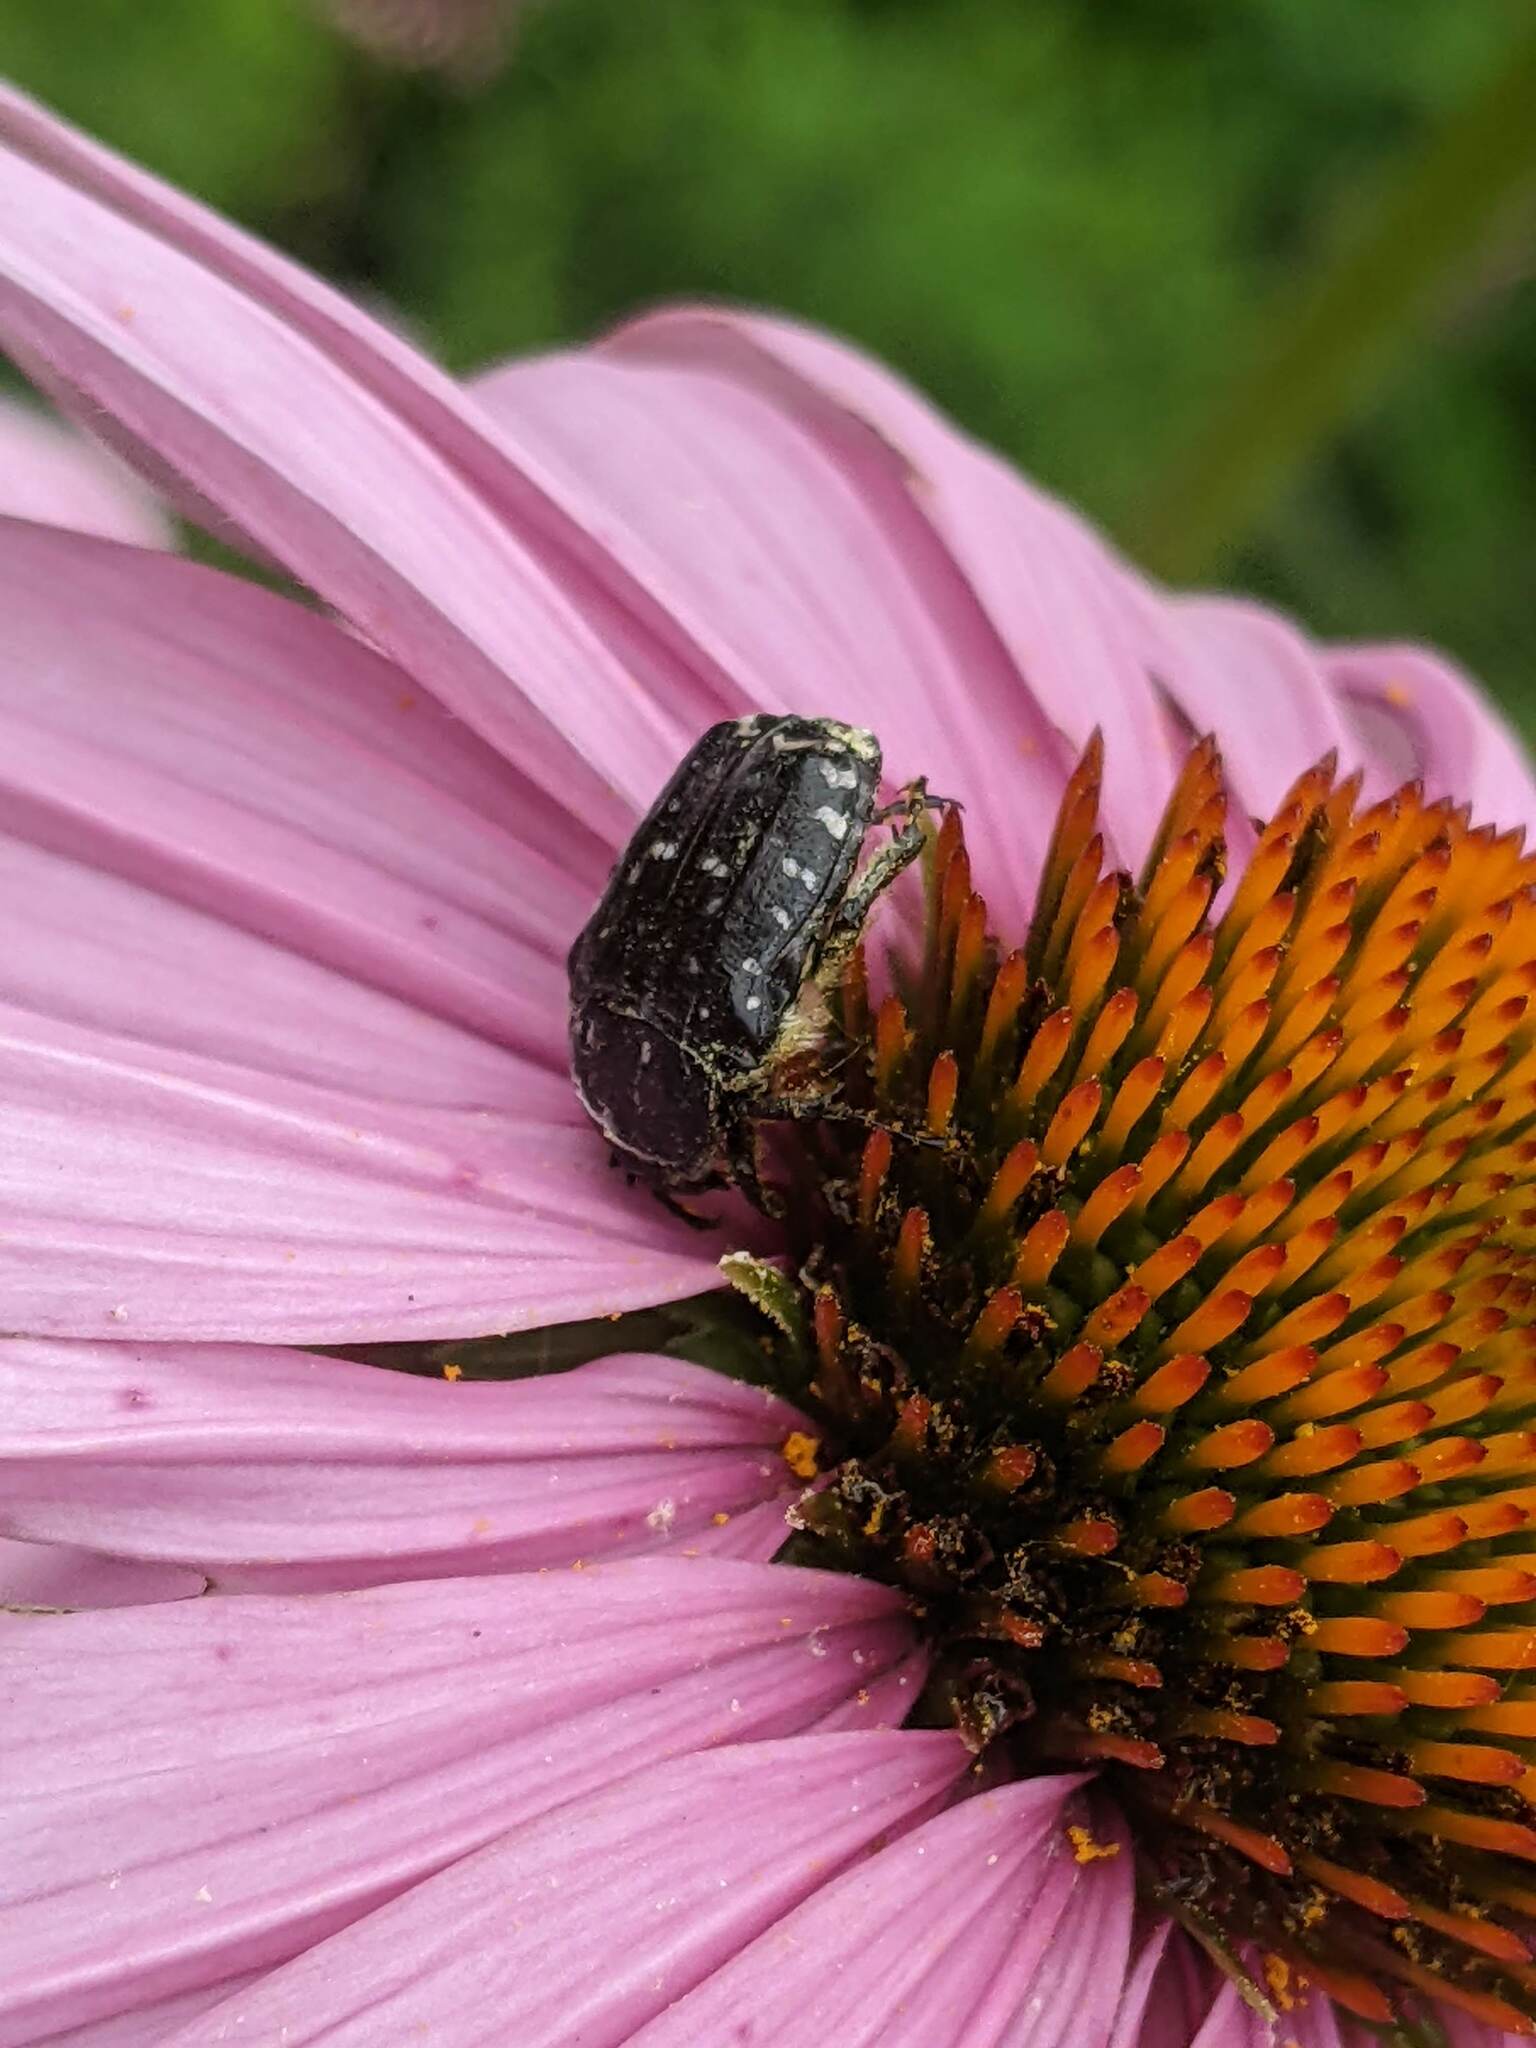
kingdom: Animalia
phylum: Arthropoda
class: Insecta
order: Coleoptera
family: Scarabaeidae
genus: Oxythyrea
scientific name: Oxythyrea funesta
